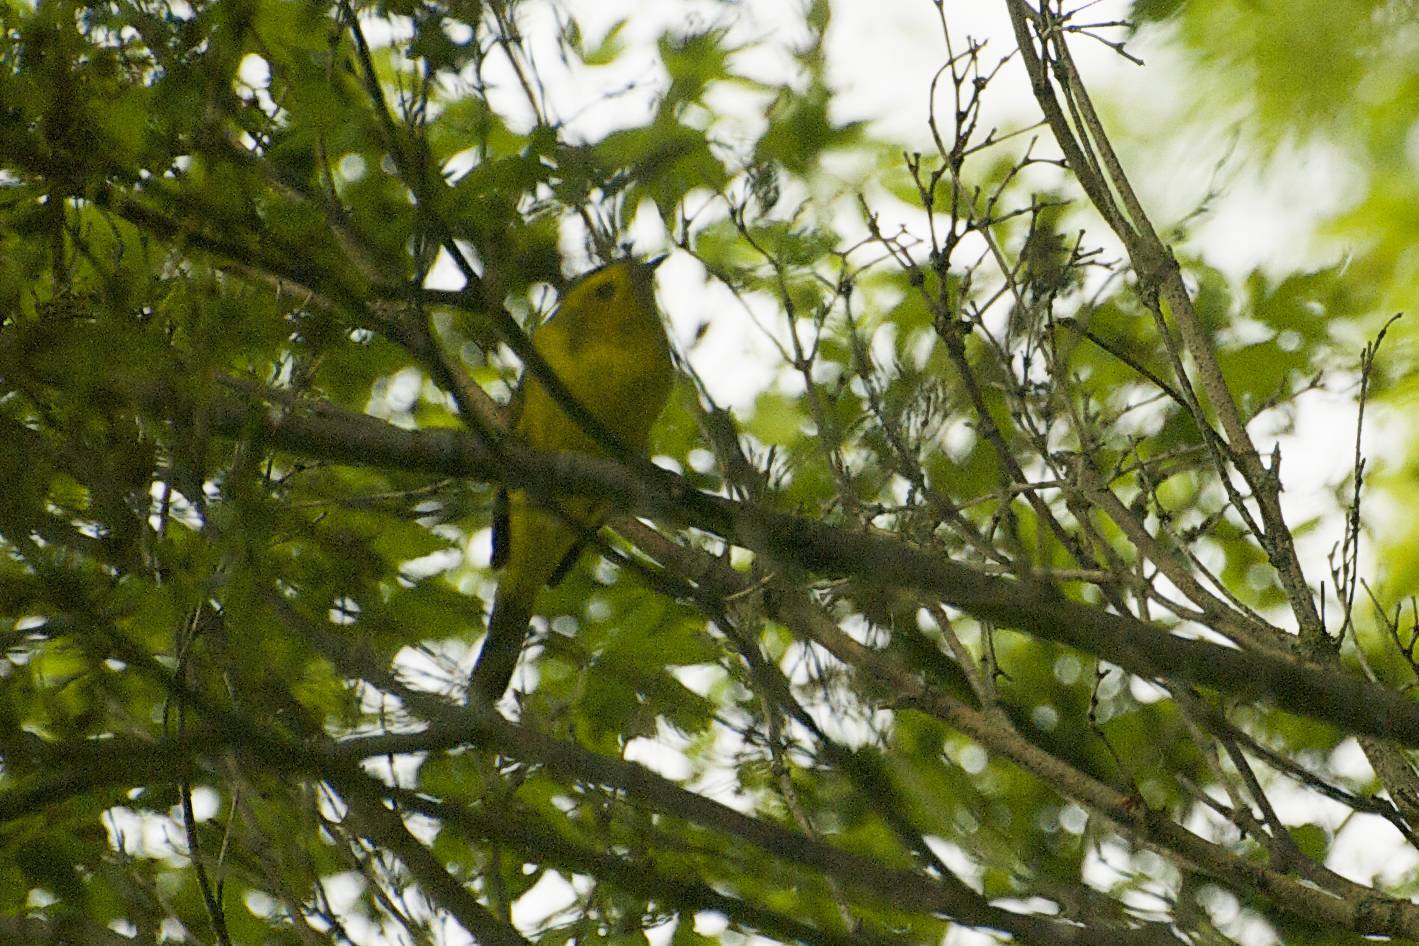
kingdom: Animalia
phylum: Chordata
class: Aves
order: Passeriformes
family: Parulidae
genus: Cardellina
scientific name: Cardellina pusilla
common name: Wilson's warbler
